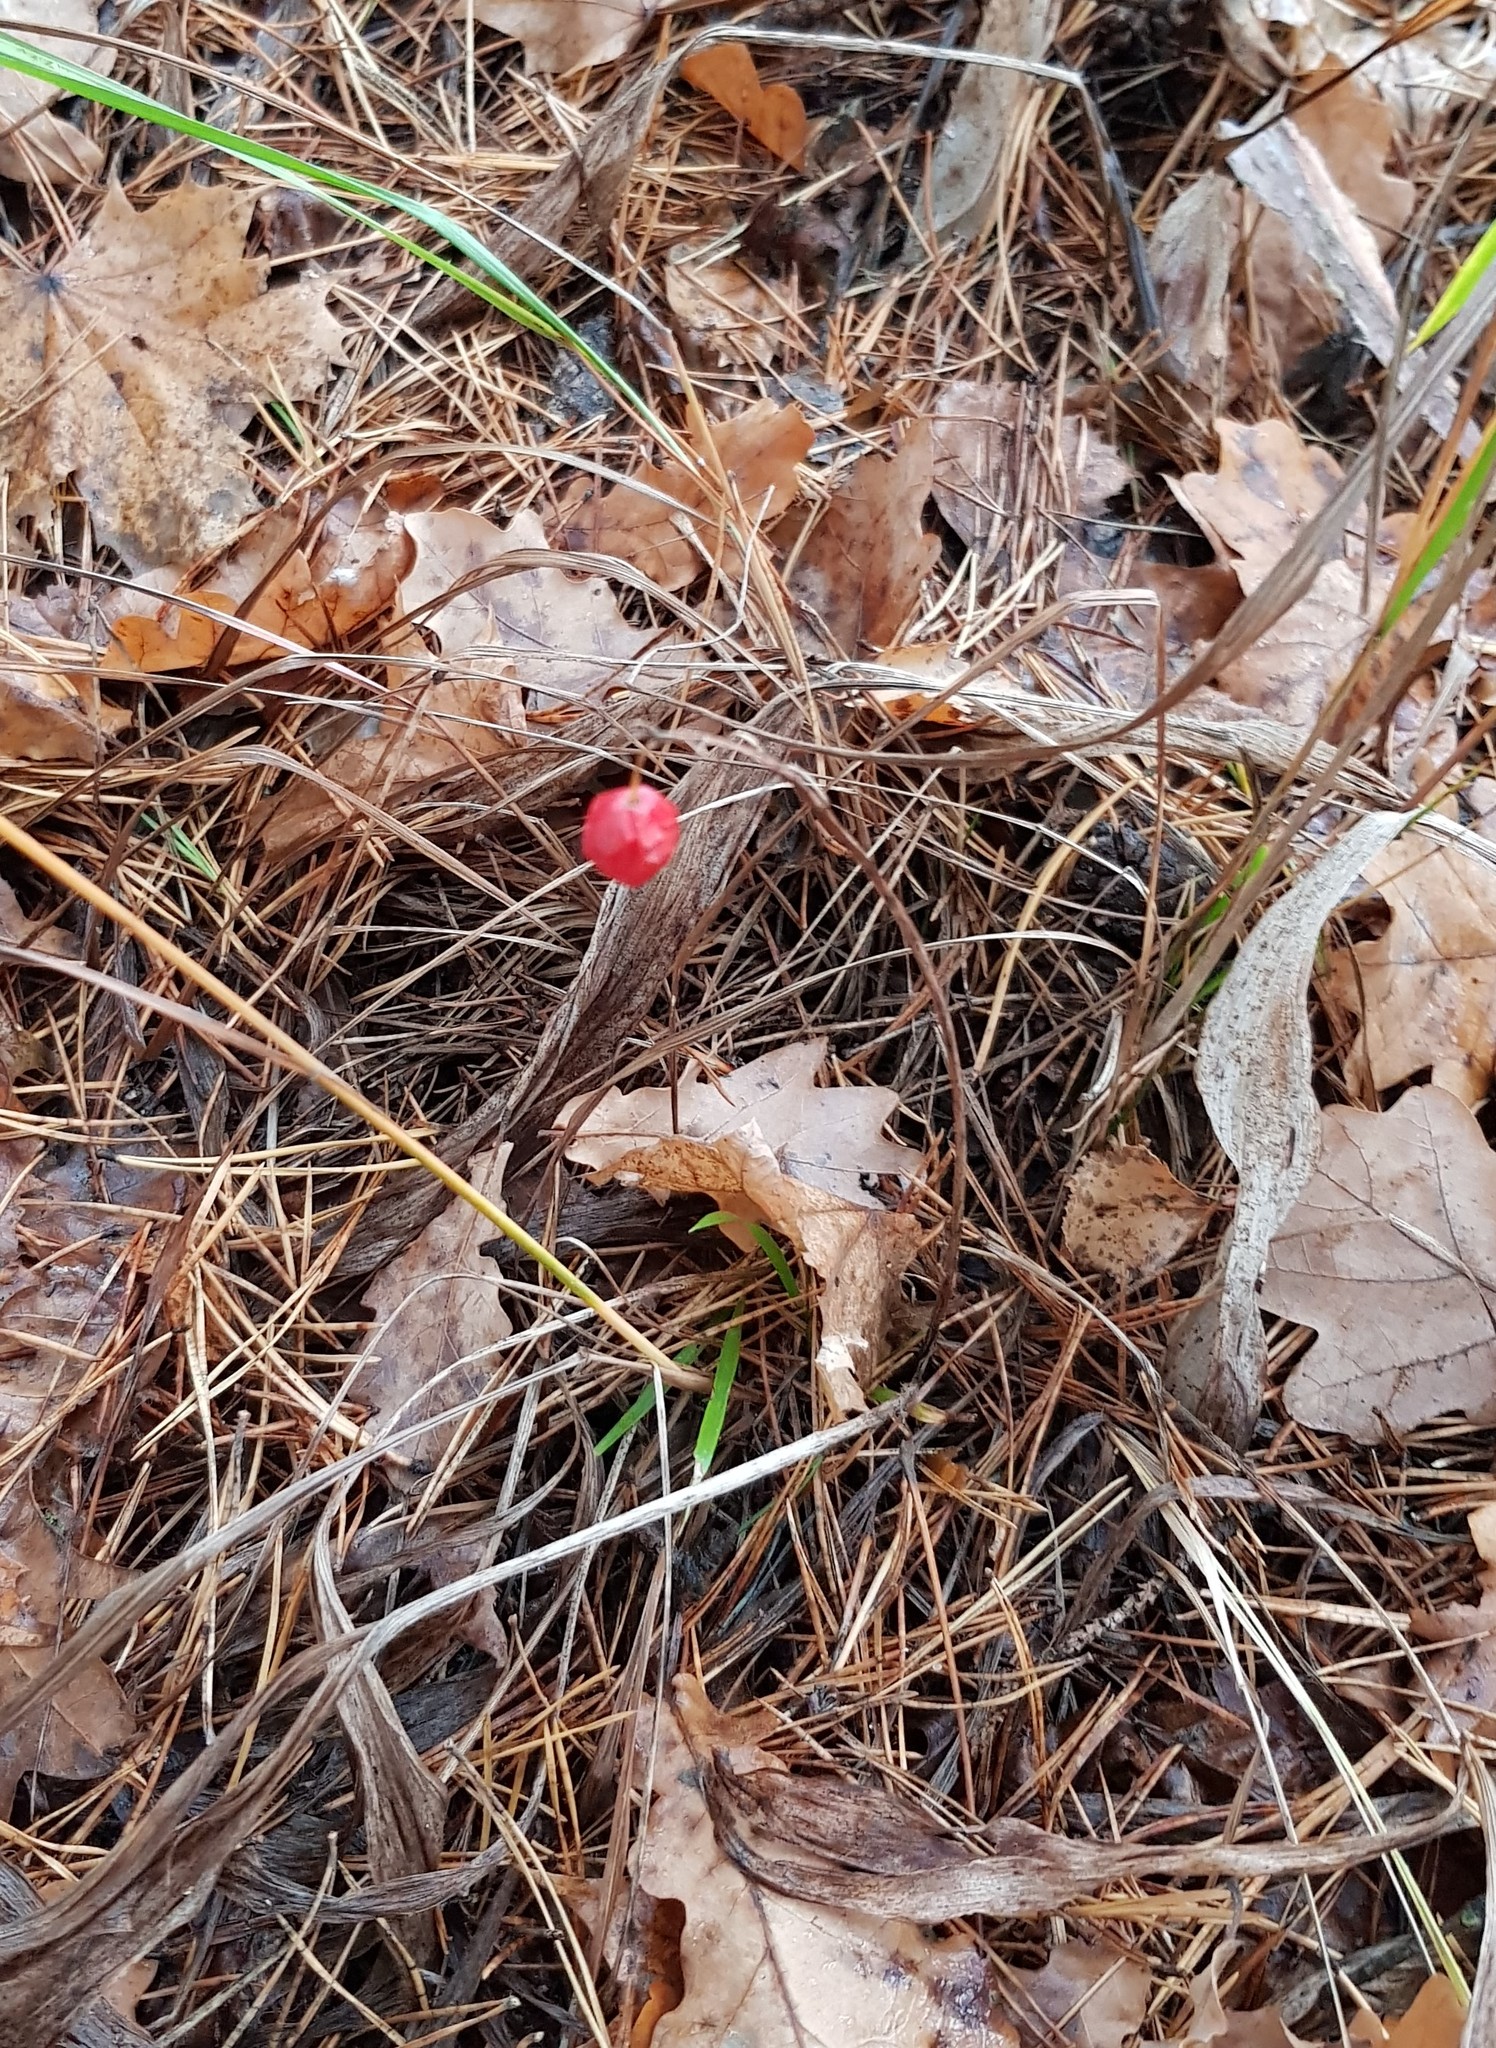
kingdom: Plantae
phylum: Tracheophyta
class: Liliopsida
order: Asparagales
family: Asparagaceae
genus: Convallaria
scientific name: Convallaria majalis
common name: Lily-of-the-valley
